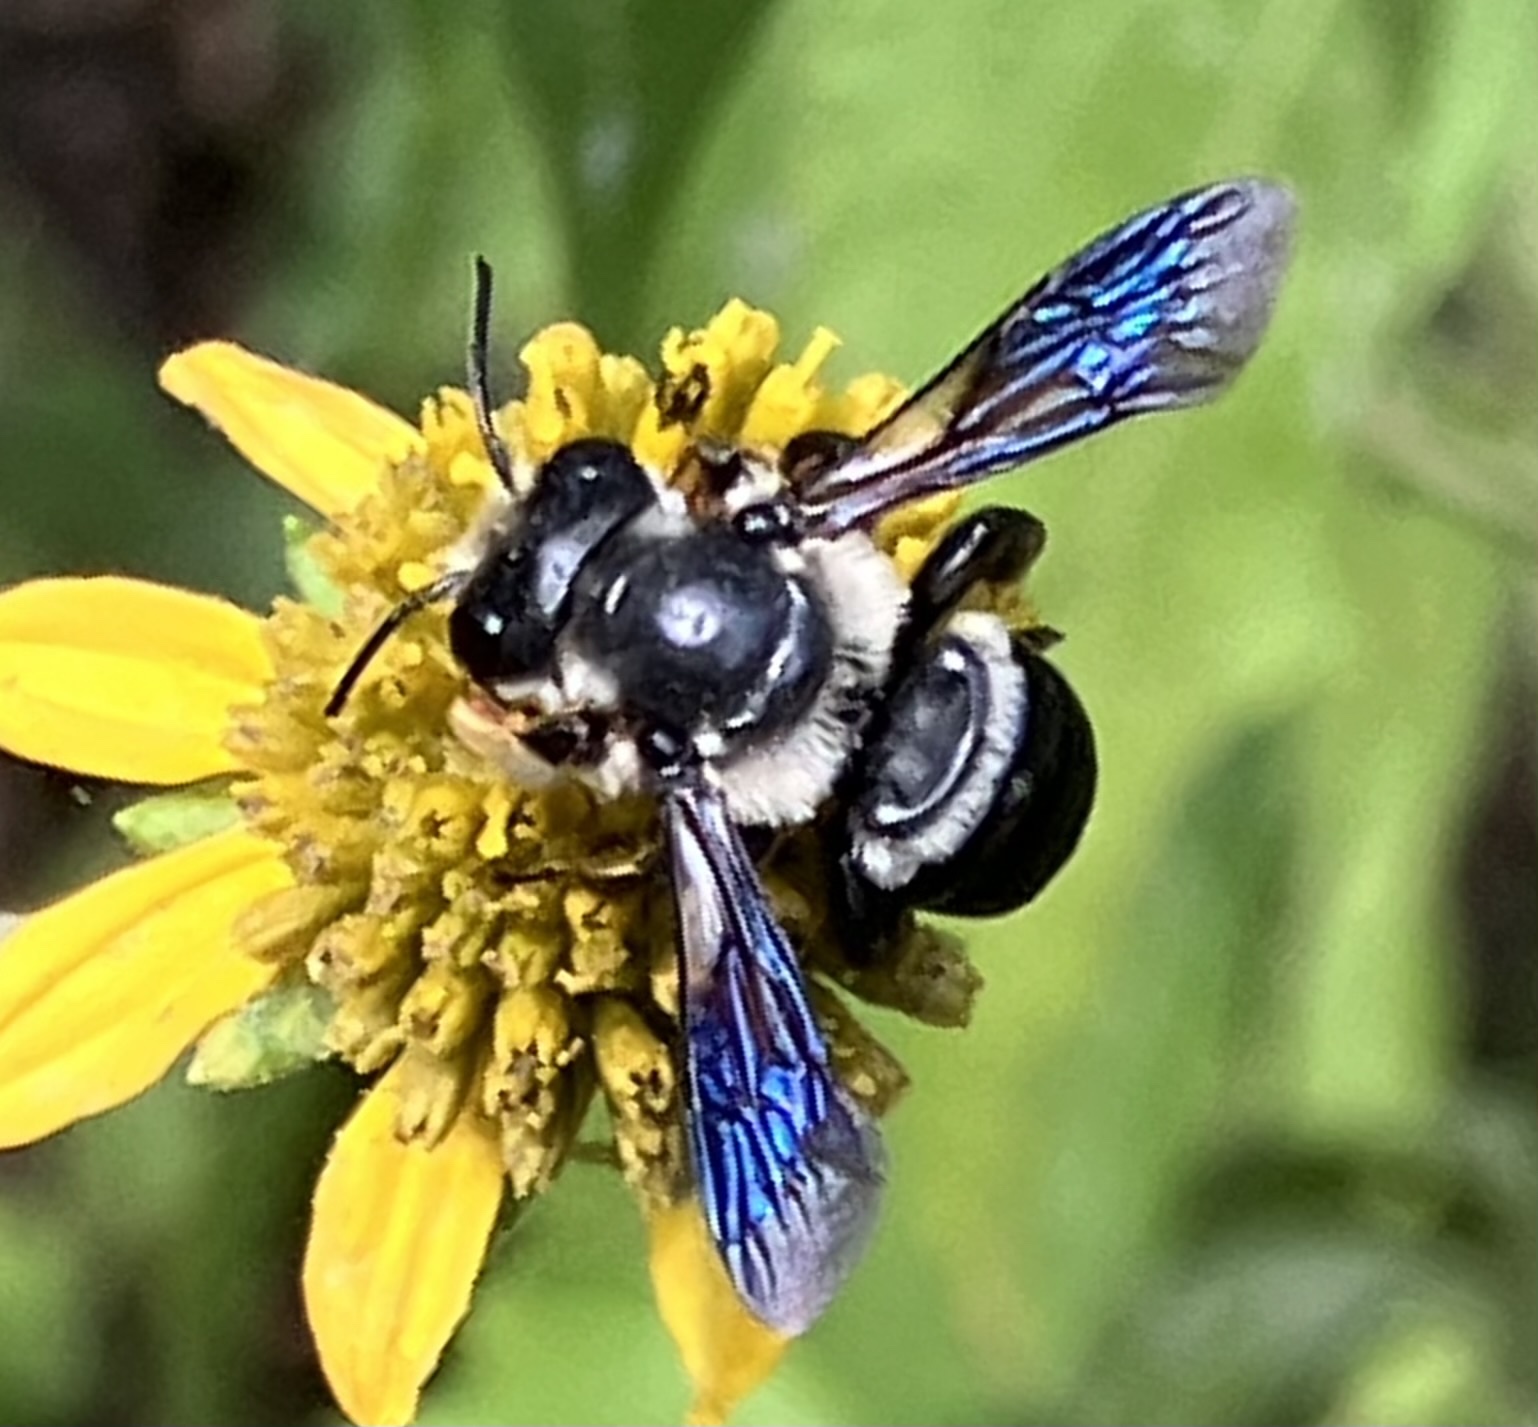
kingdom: Animalia
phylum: Arthropoda
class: Insecta
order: Hymenoptera
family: Megachilidae
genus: Megachile
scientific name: Megachile xylocopoides
